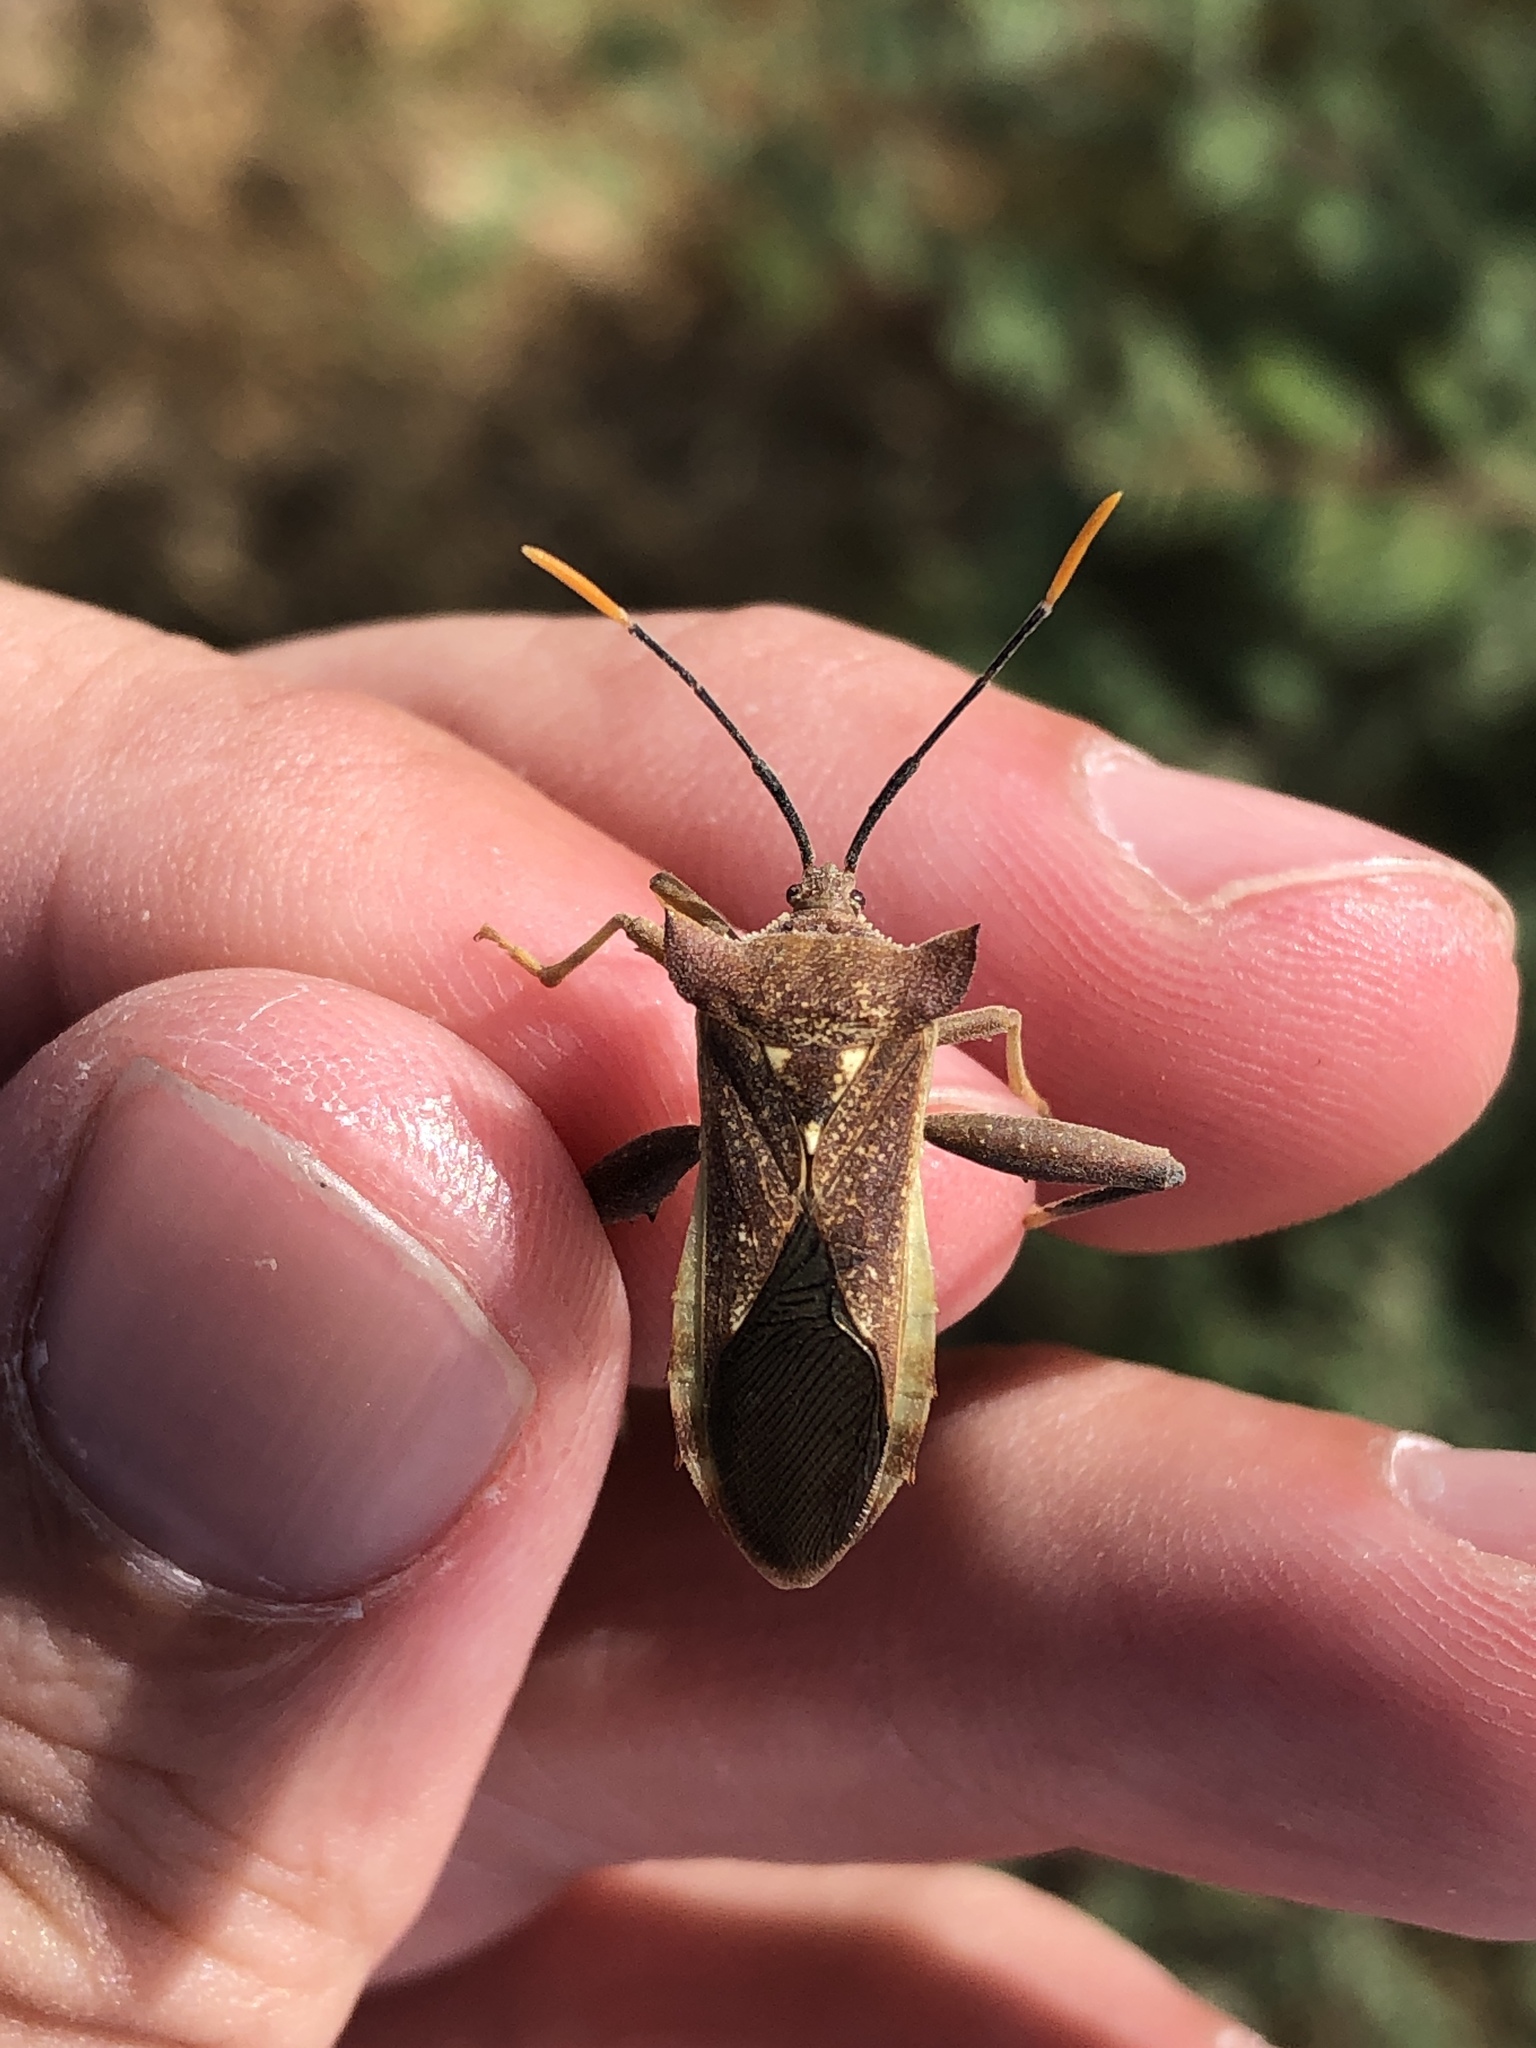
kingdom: Animalia
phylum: Arthropoda
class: Insecta
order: Hemiptera
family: Coreidae
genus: Mozena
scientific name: Mozena lunata
